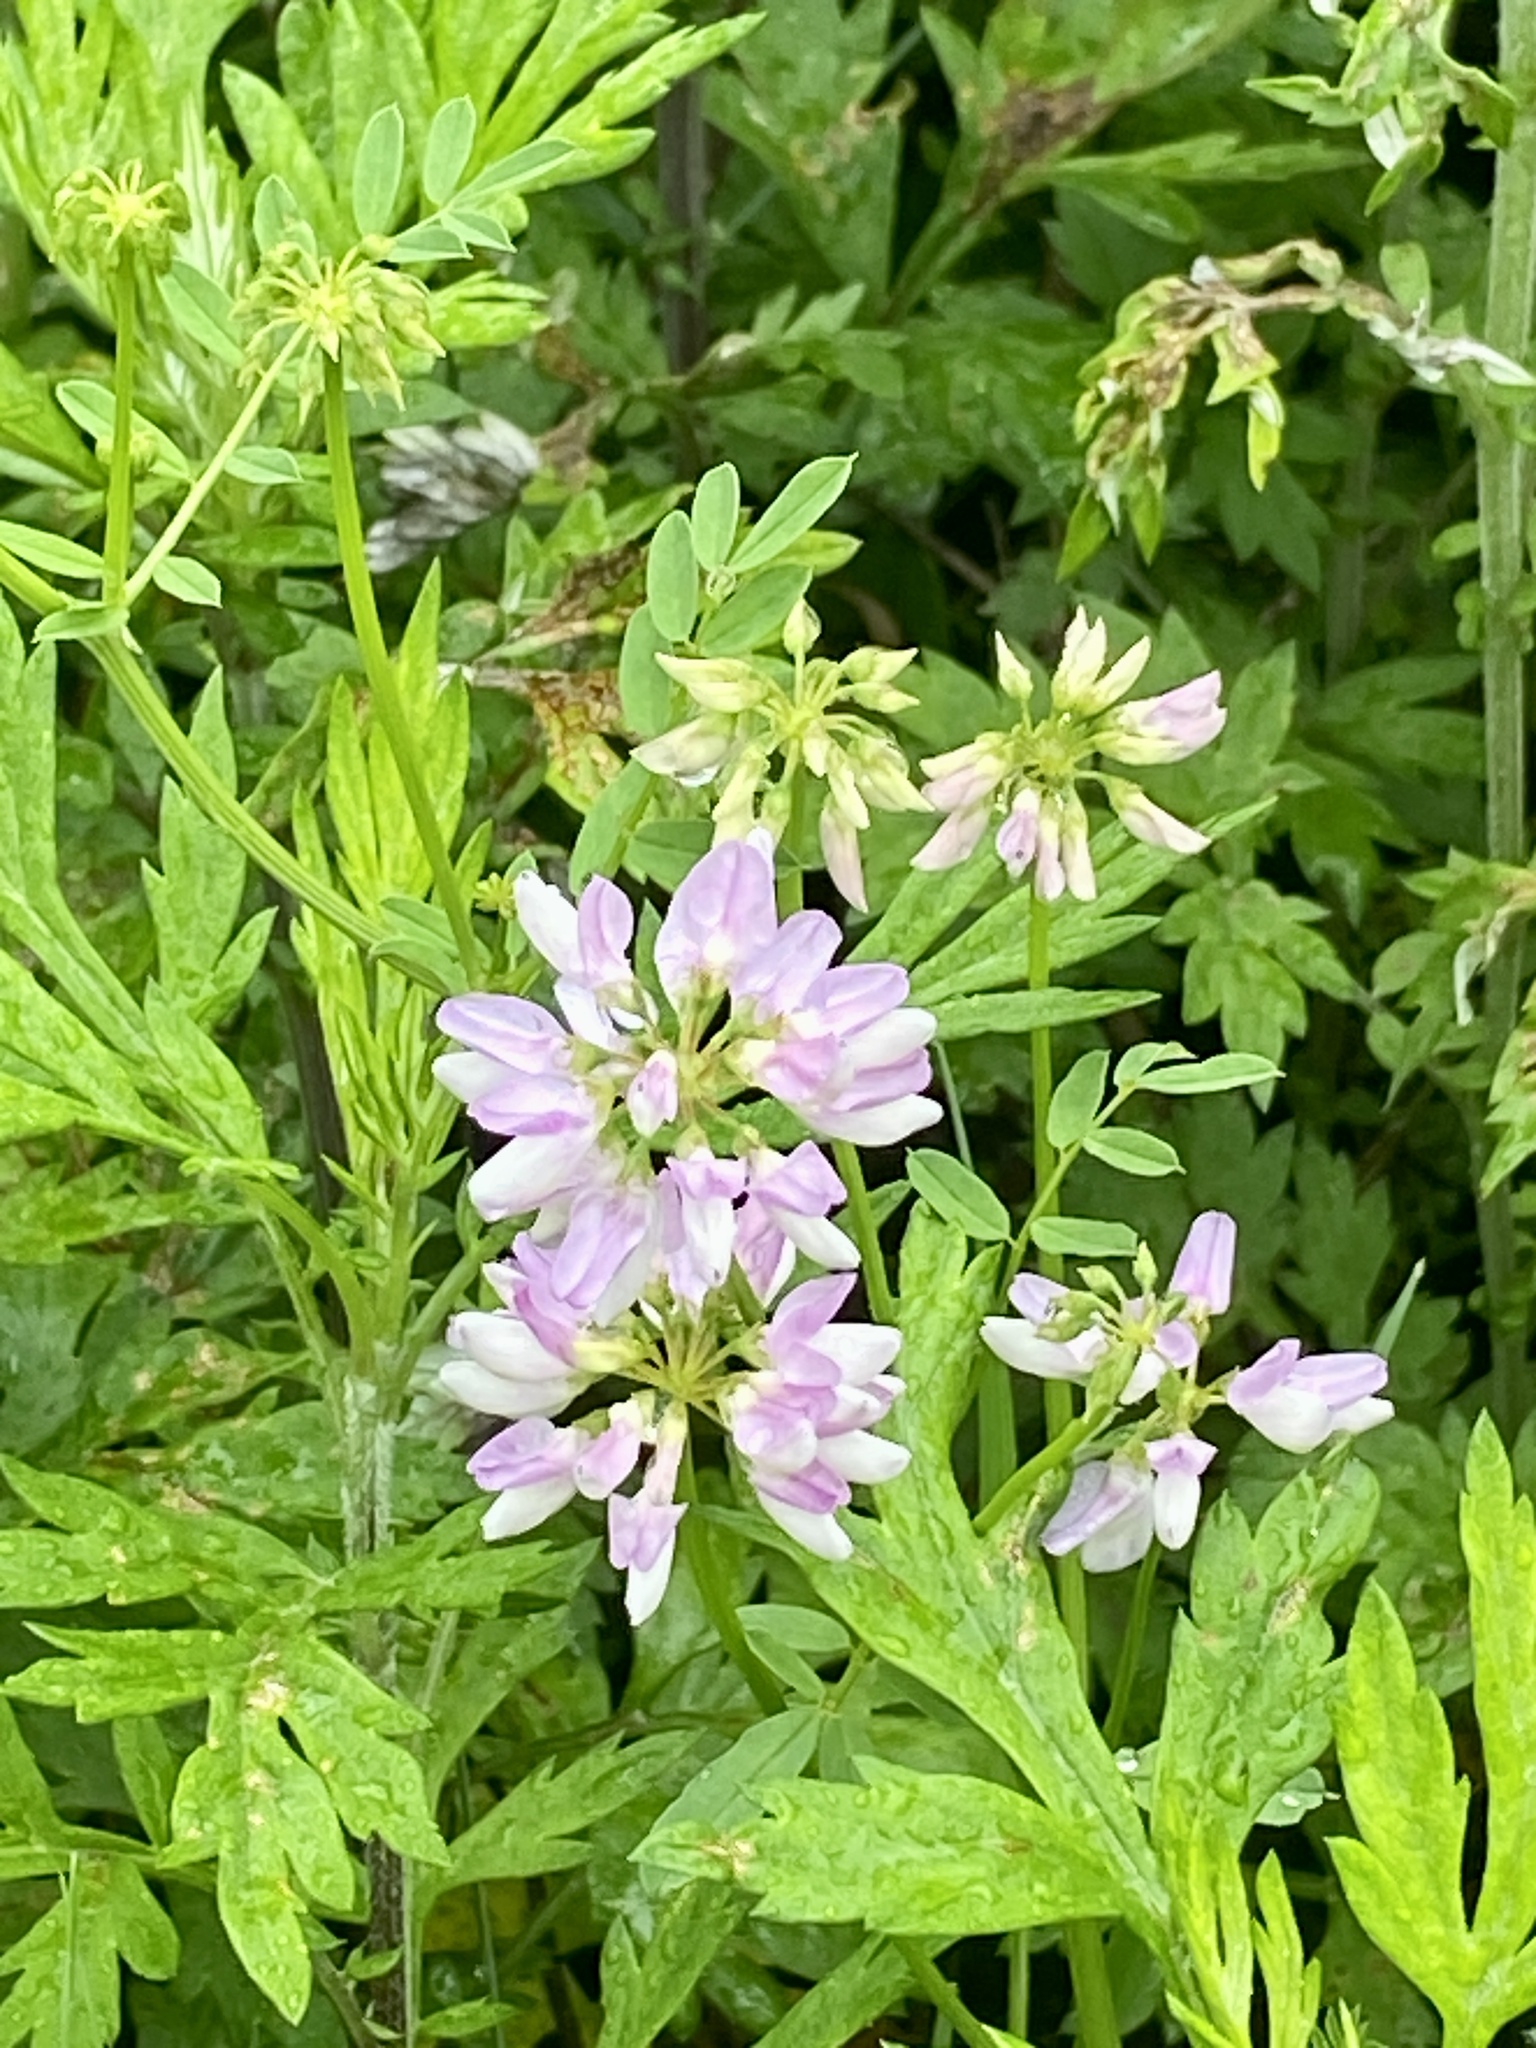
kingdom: Plantae
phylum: Tracheophyta
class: Magnoliopsida
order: Fabales
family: Fabaceae
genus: Coronilla
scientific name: Coronilla varia
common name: Crownvetch
